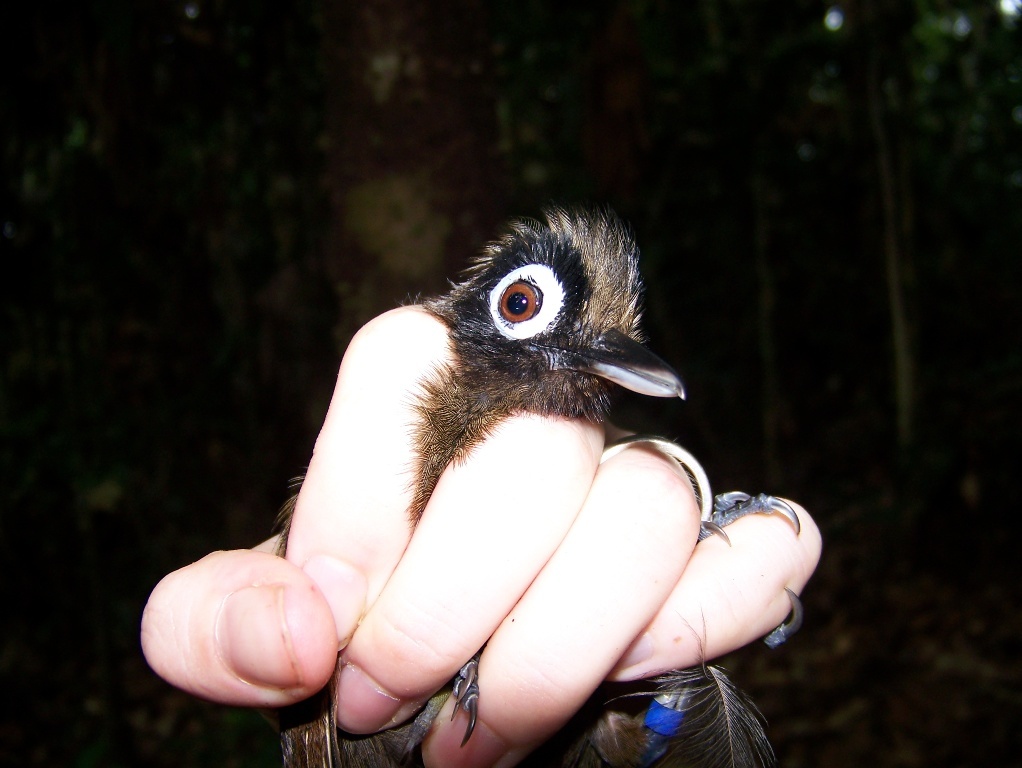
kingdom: Animalia
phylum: Chordata
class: Aves
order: Passeriformes
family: Thamnophilidae
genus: Rhegmatorhina
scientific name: Rhegmatorhina melanosticta
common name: Hairy-crested antbird
